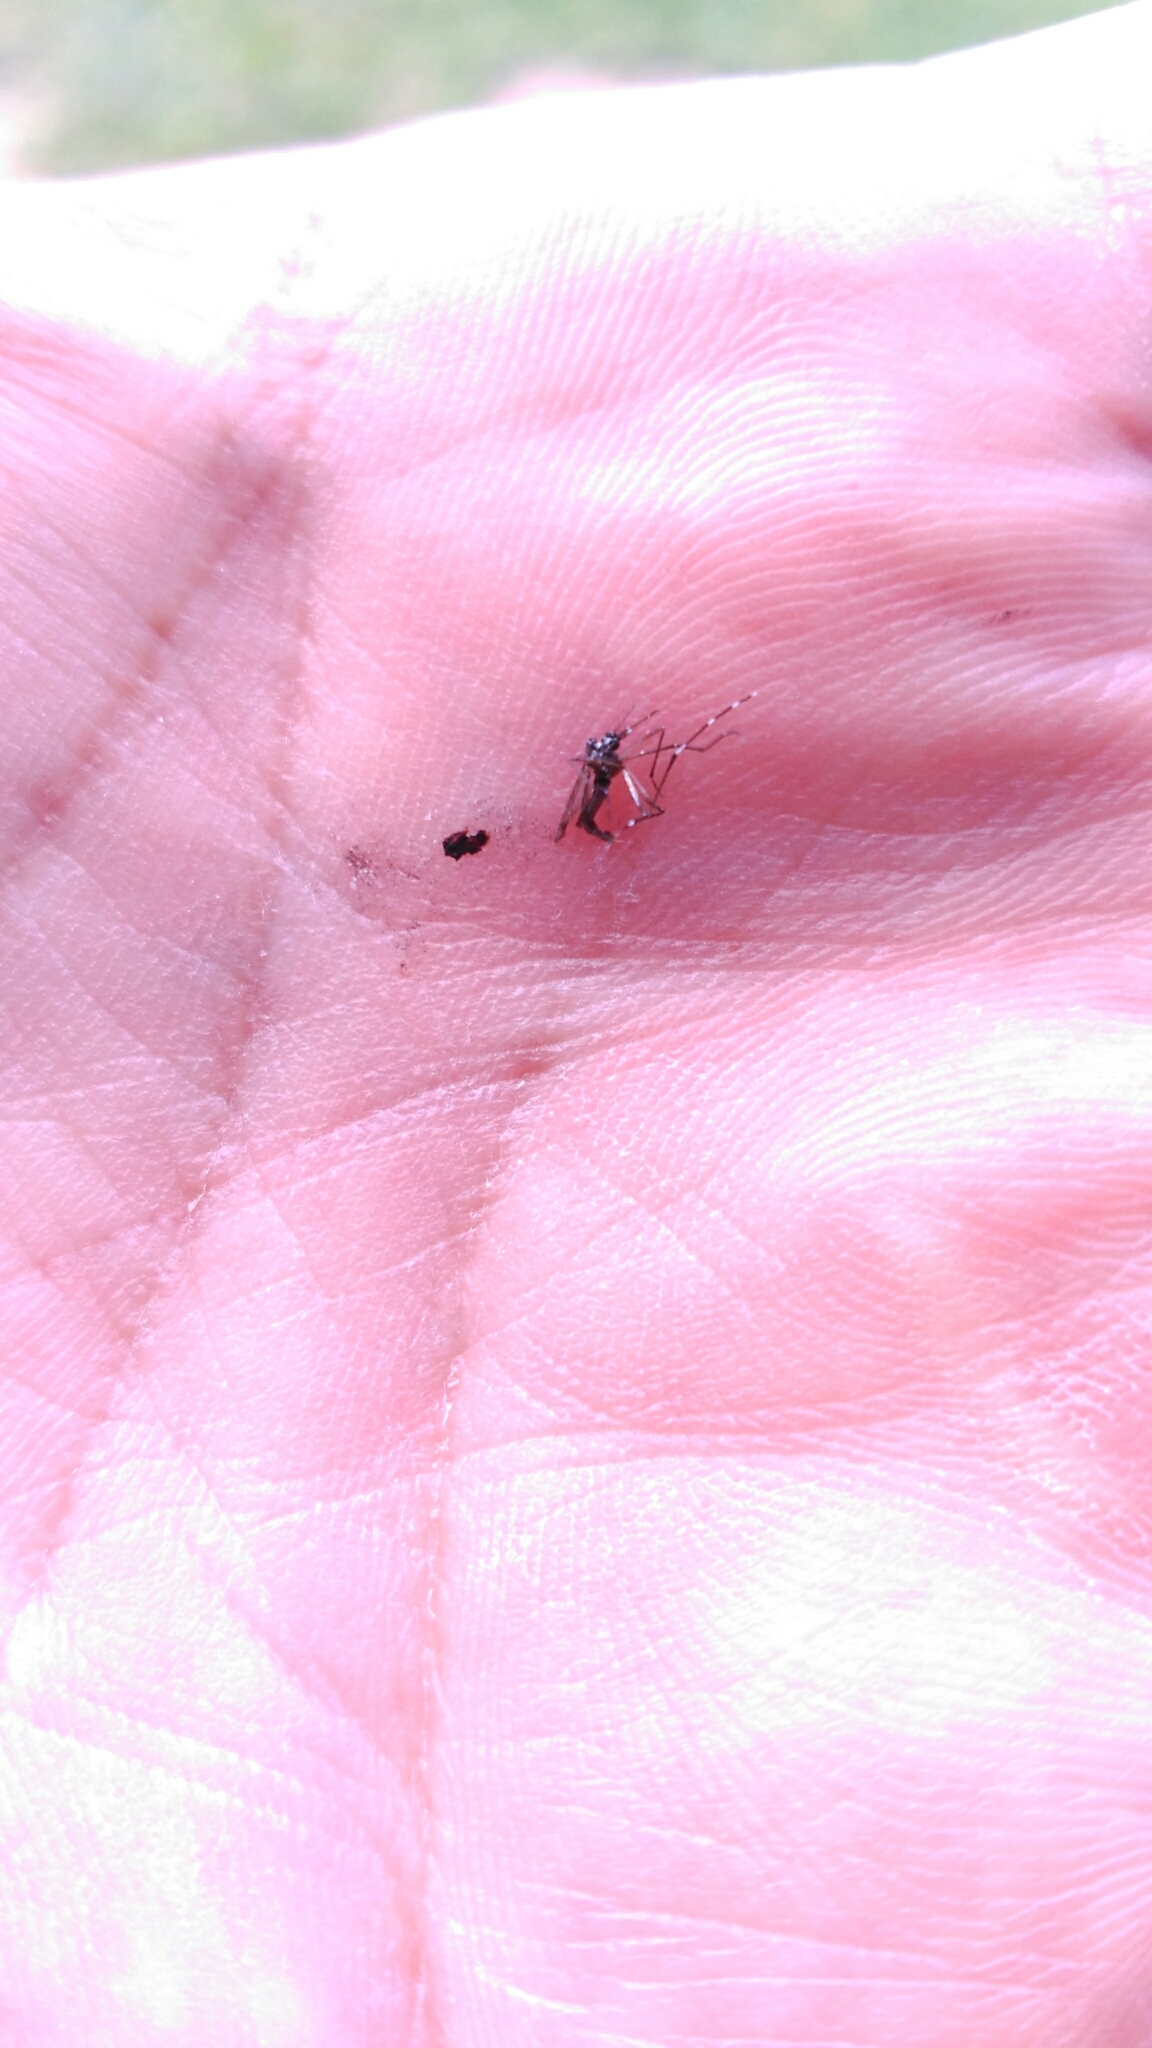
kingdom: Animalia
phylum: Arthropoda
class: Insecta
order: Diptera
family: Culicidae
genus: Aedes
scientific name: Aedes albopictus
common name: Tiger mosquito
